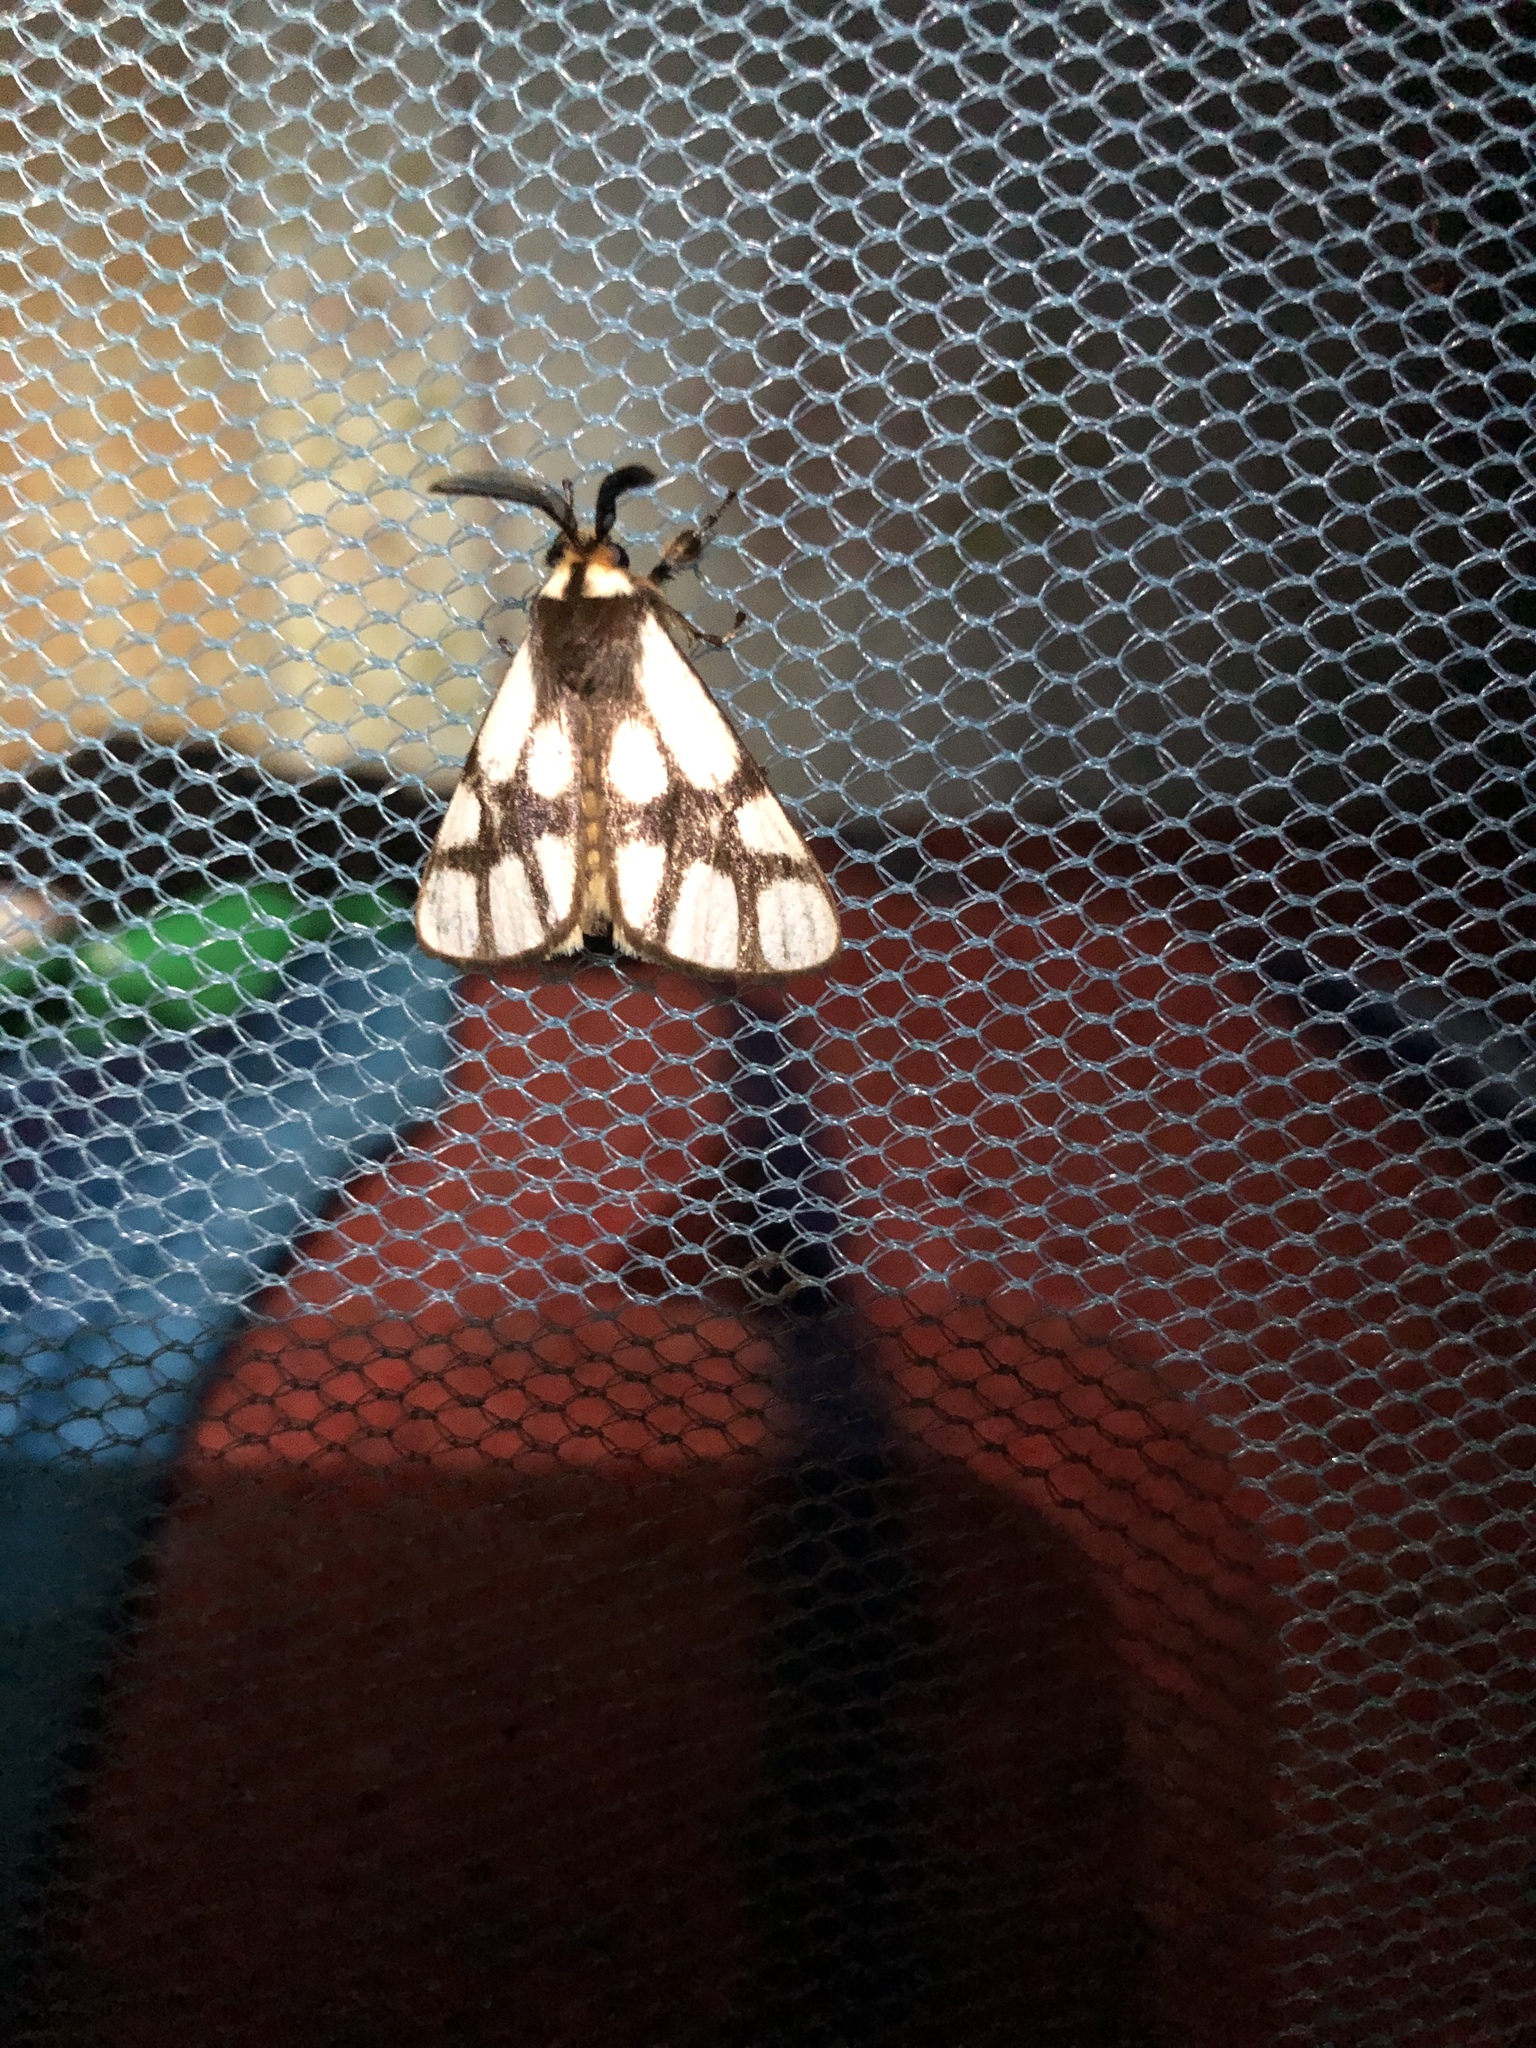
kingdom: Animalia
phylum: Arthropoda
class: Insecta
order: Lepidoptera
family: Notodontidae
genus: Anaphe
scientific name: Anaphe reticulata
